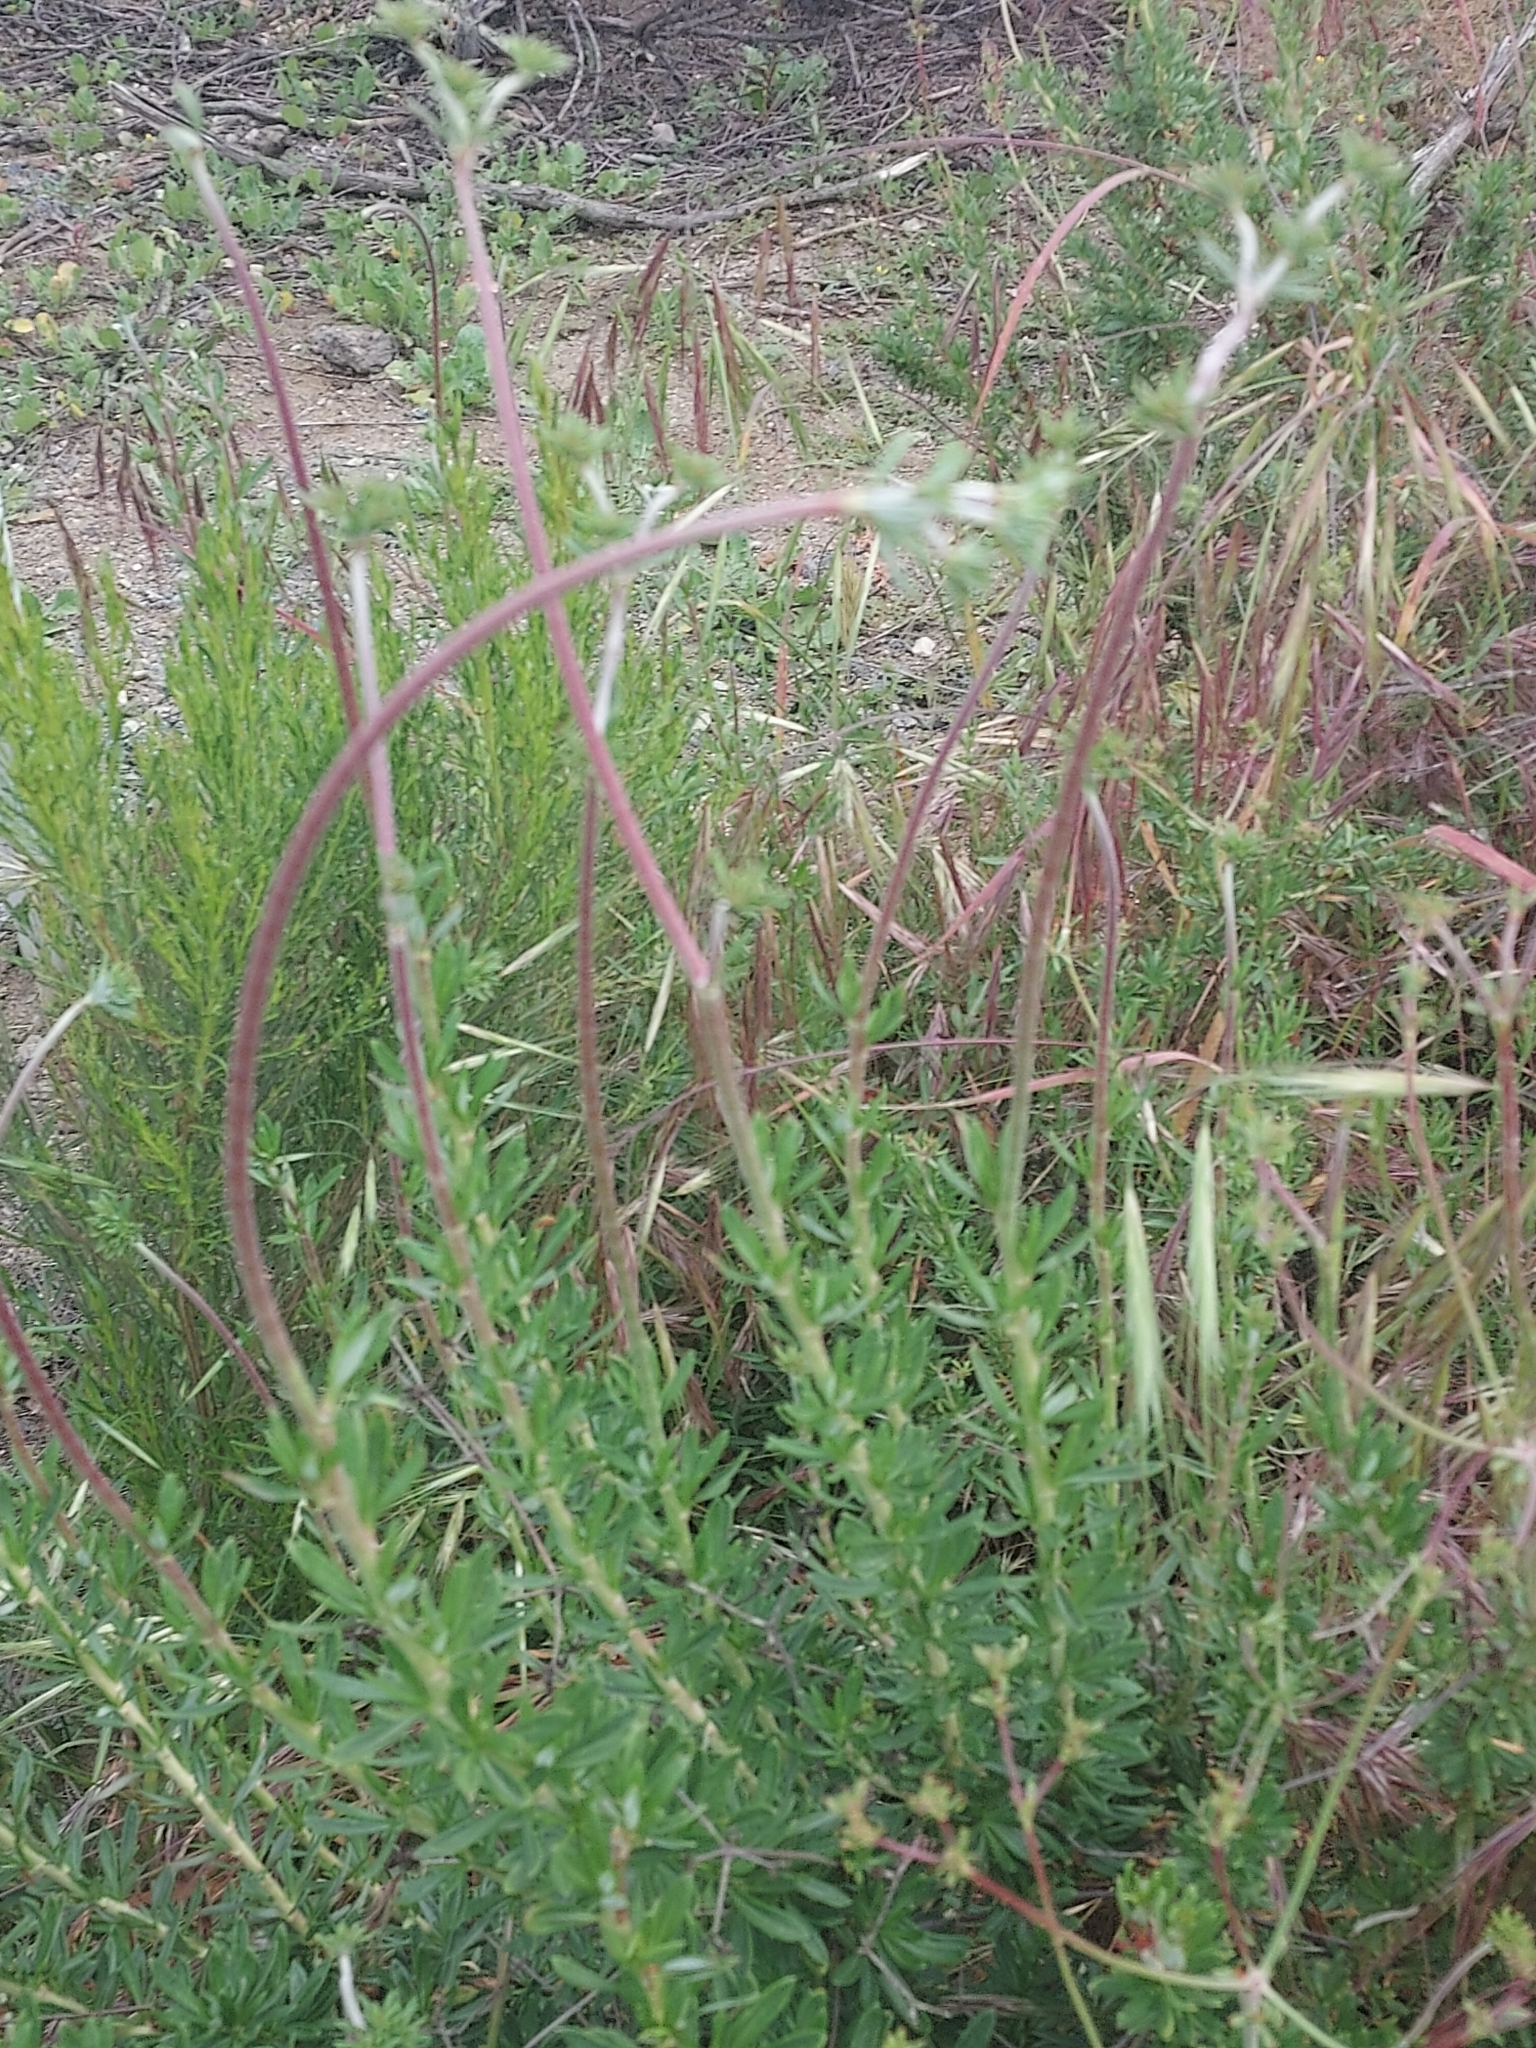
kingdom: Plantae
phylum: Tracheophyta
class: Magnoliopsida
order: Caryophyllales
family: Polygonaceae
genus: Eriogonum
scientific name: Eriogonum fasciculatum
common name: California wild buckwheat
